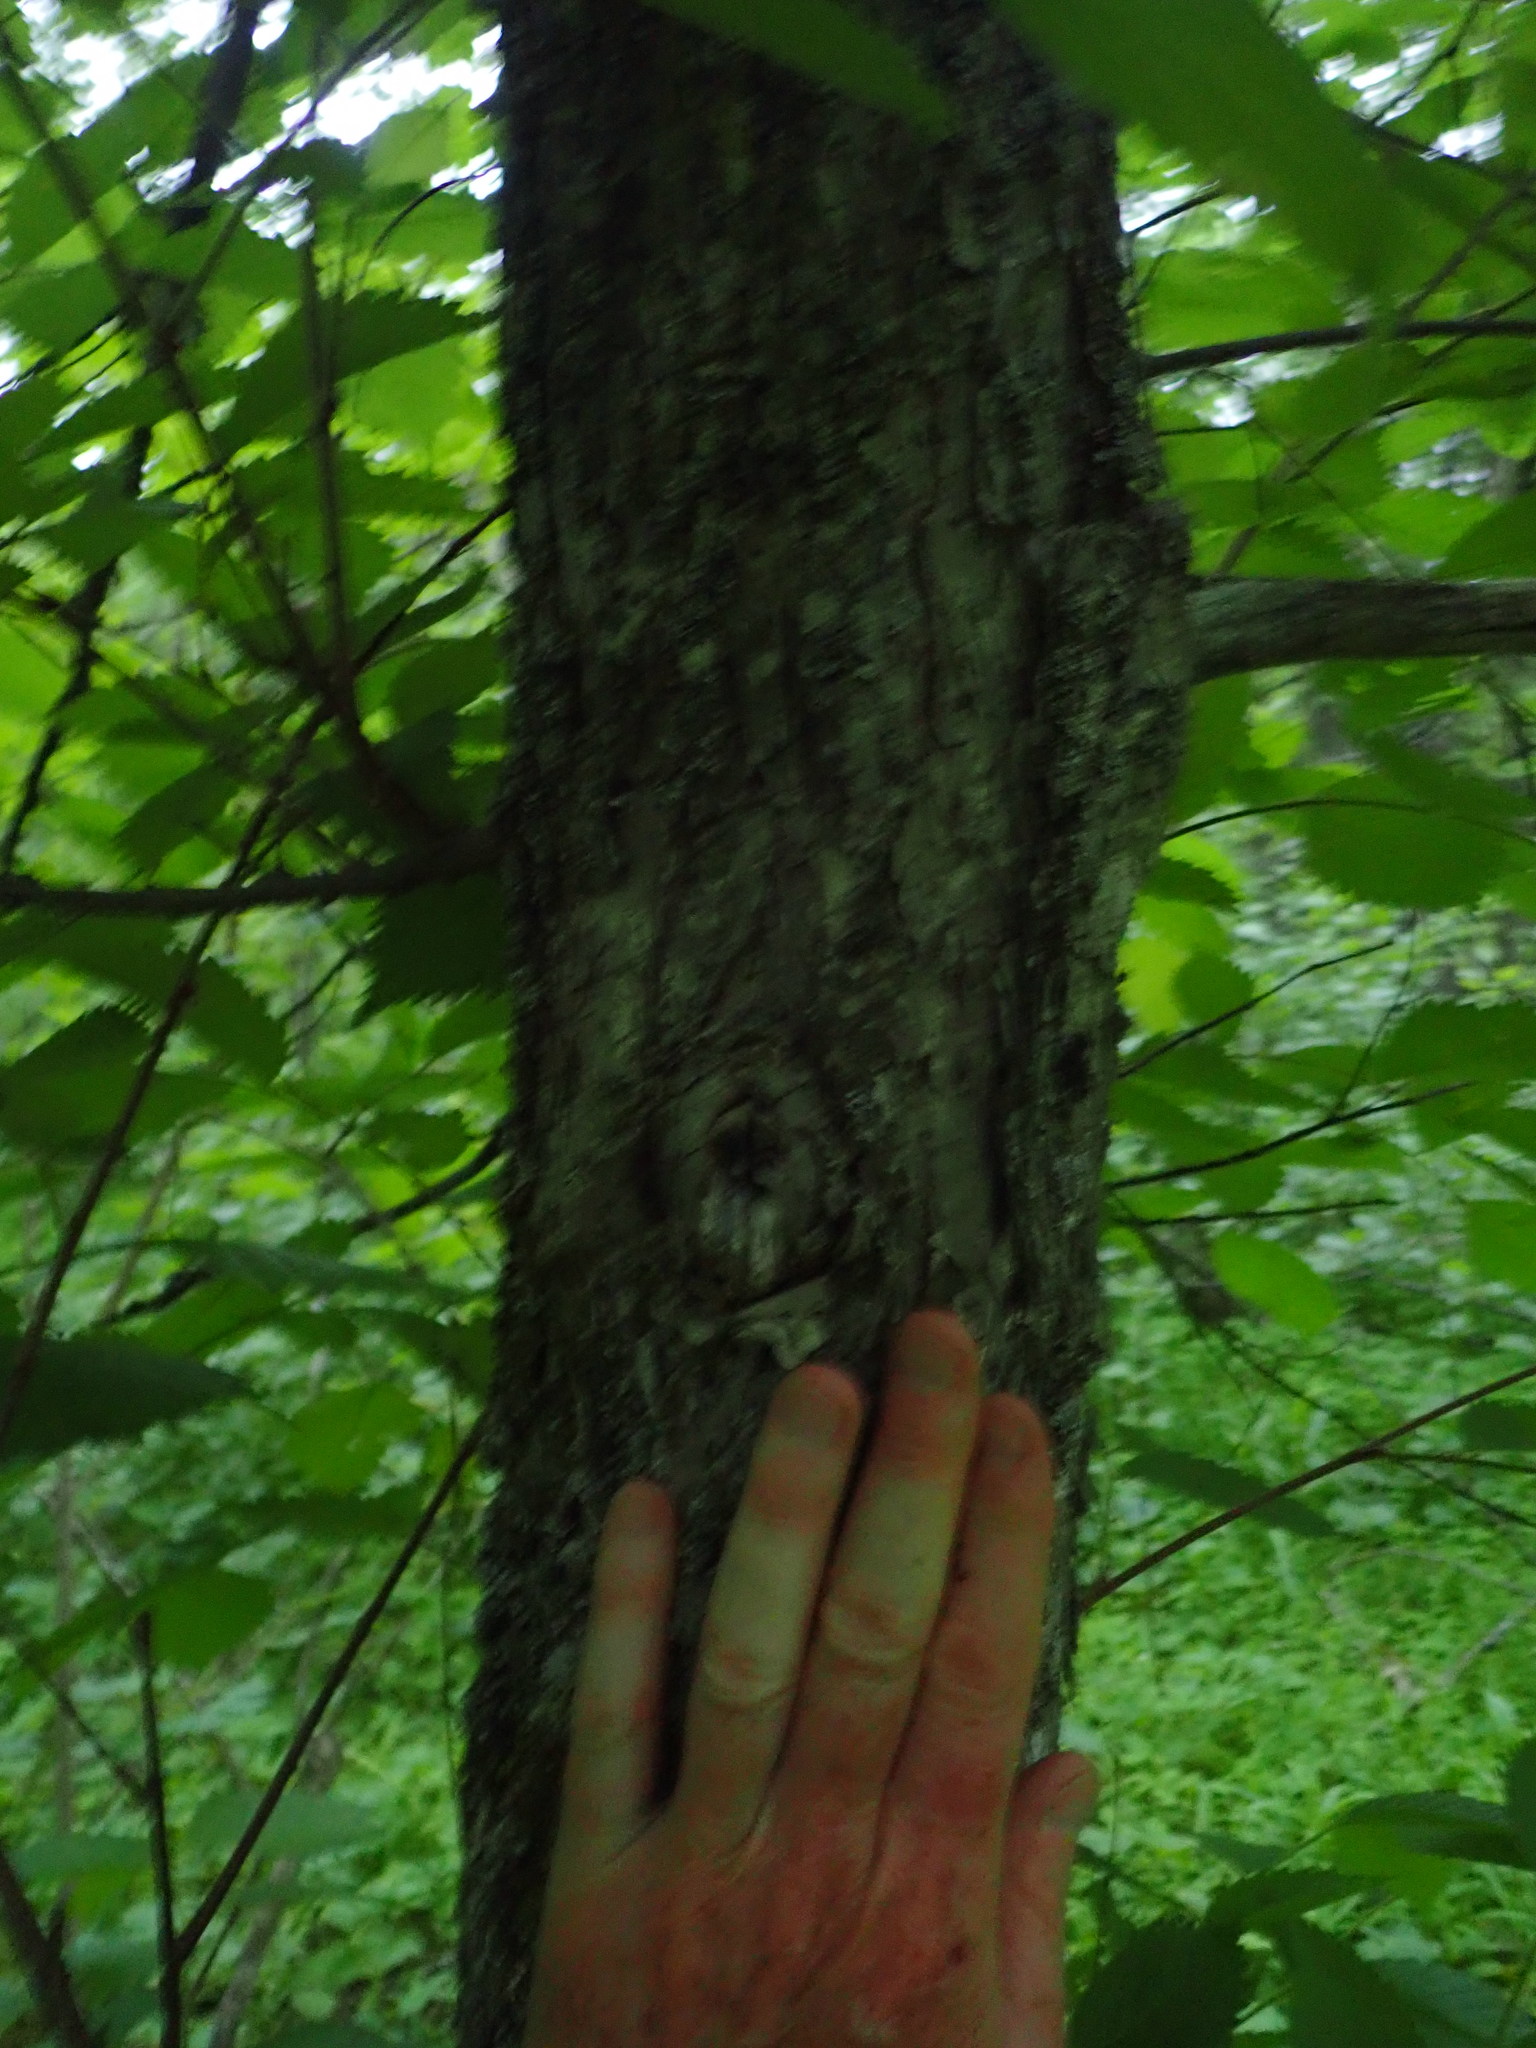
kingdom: Plantae
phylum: Tracheophyta
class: Magnoliopsida
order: Rosales
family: Ulmaceae
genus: Ulmus
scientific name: Ulmus americana
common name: American elm
